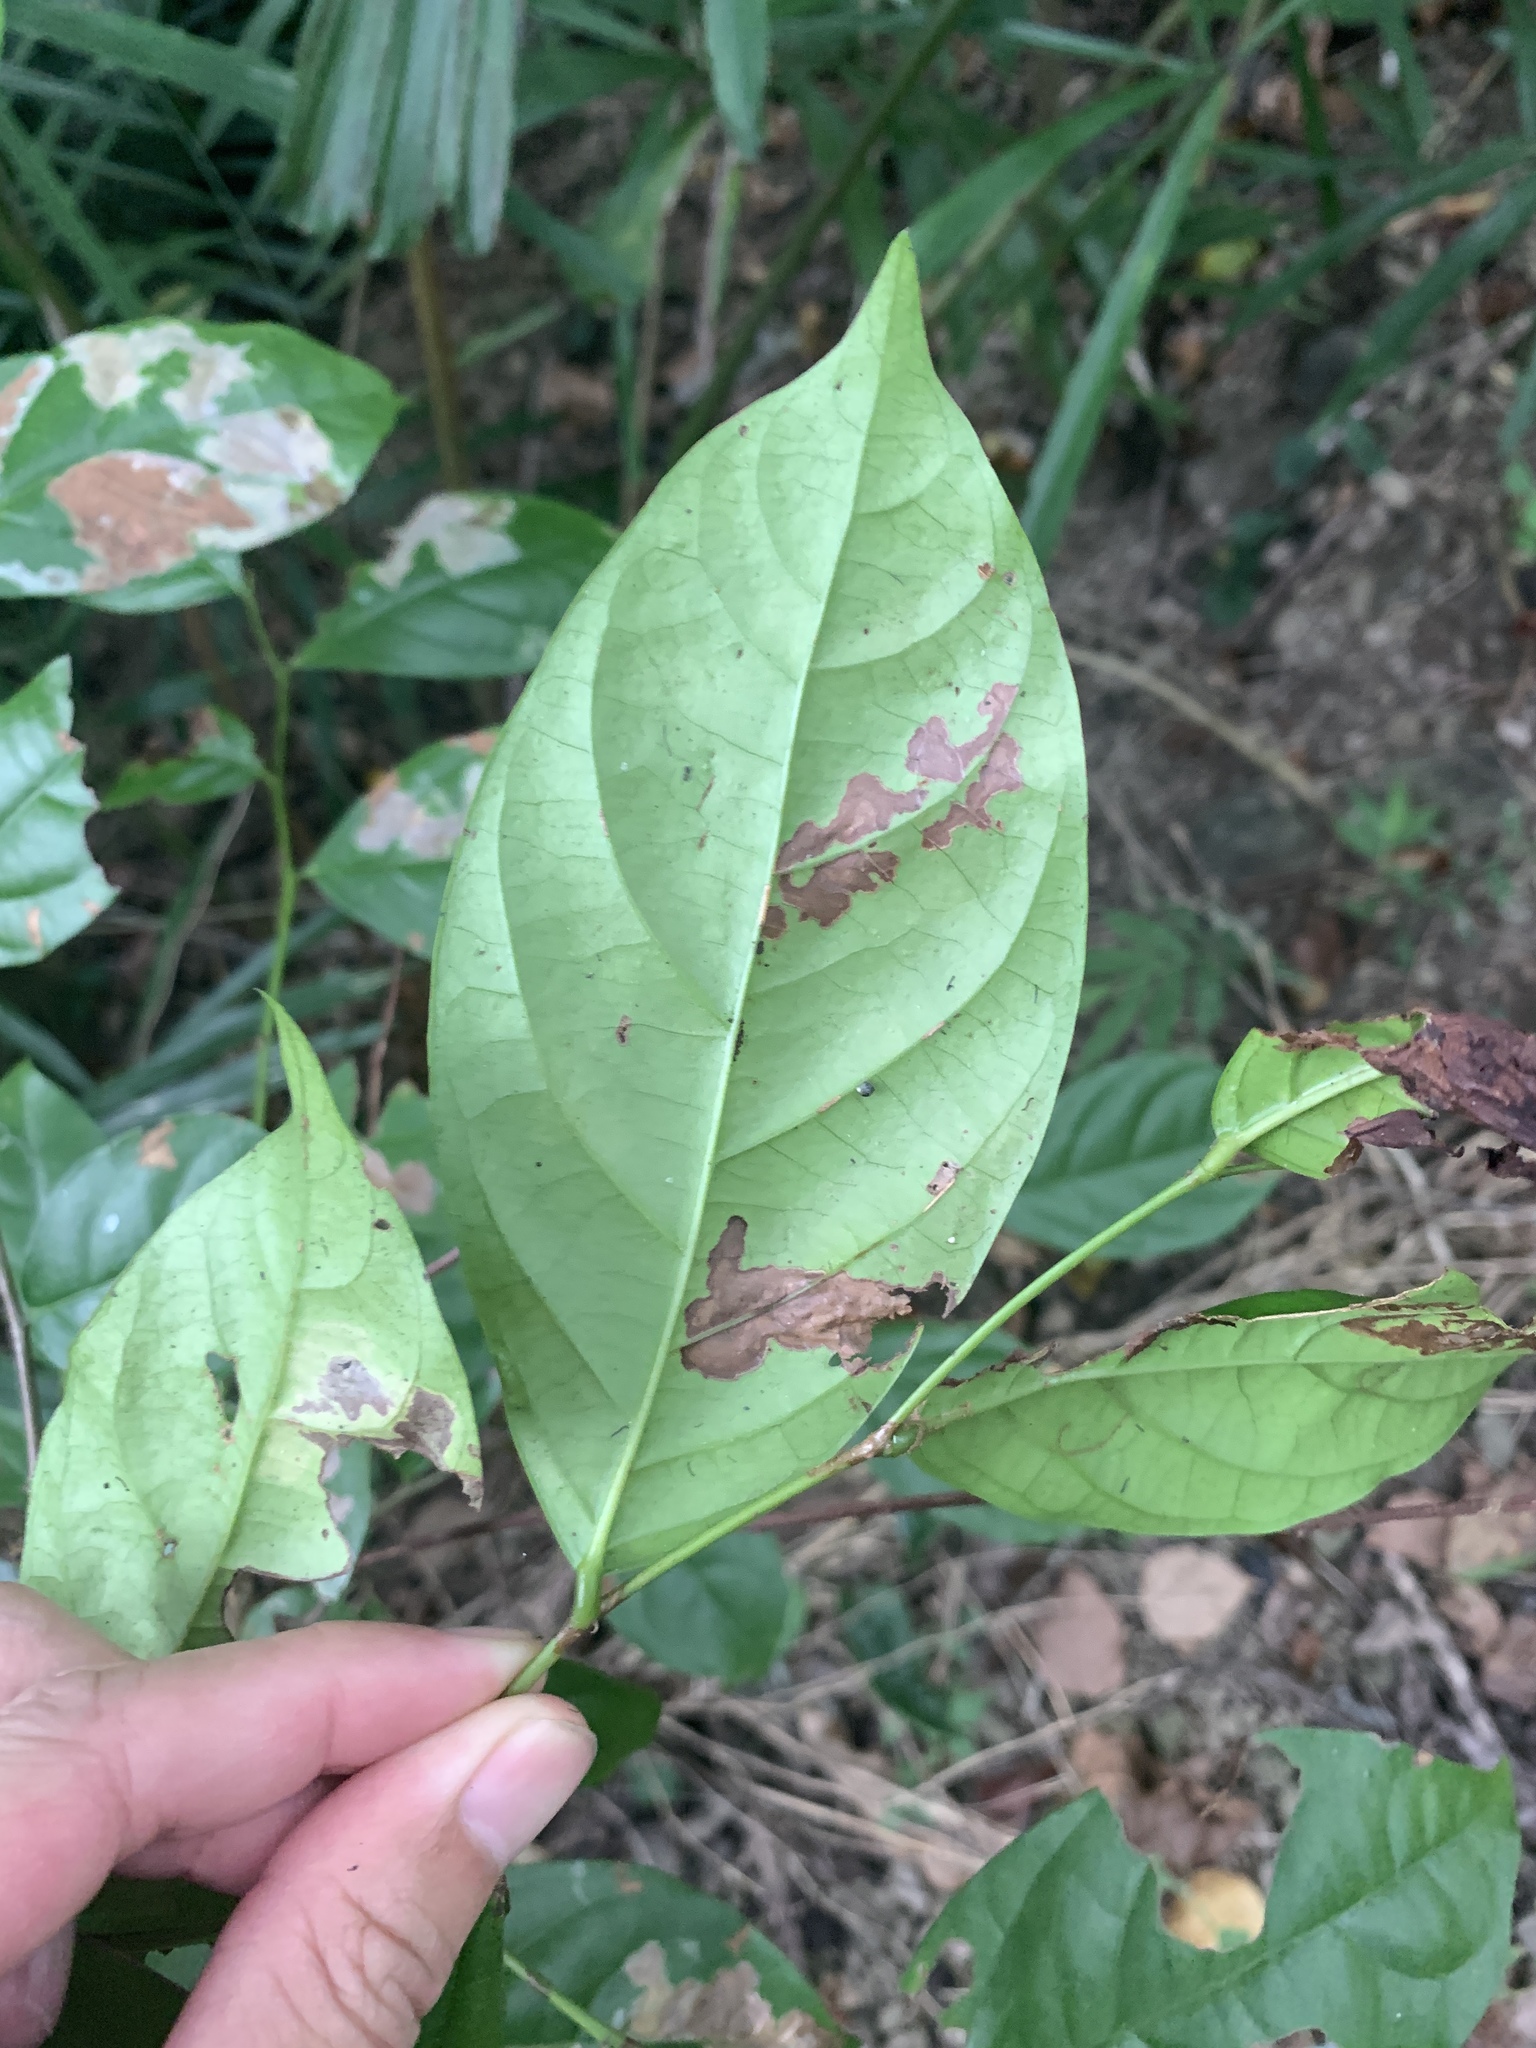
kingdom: Plantae
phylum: Tracheophyta
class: Magnoliopsida
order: Malpighiales
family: Phyllanthaceae
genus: Glochidion
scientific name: Glochidion zeylanicum
